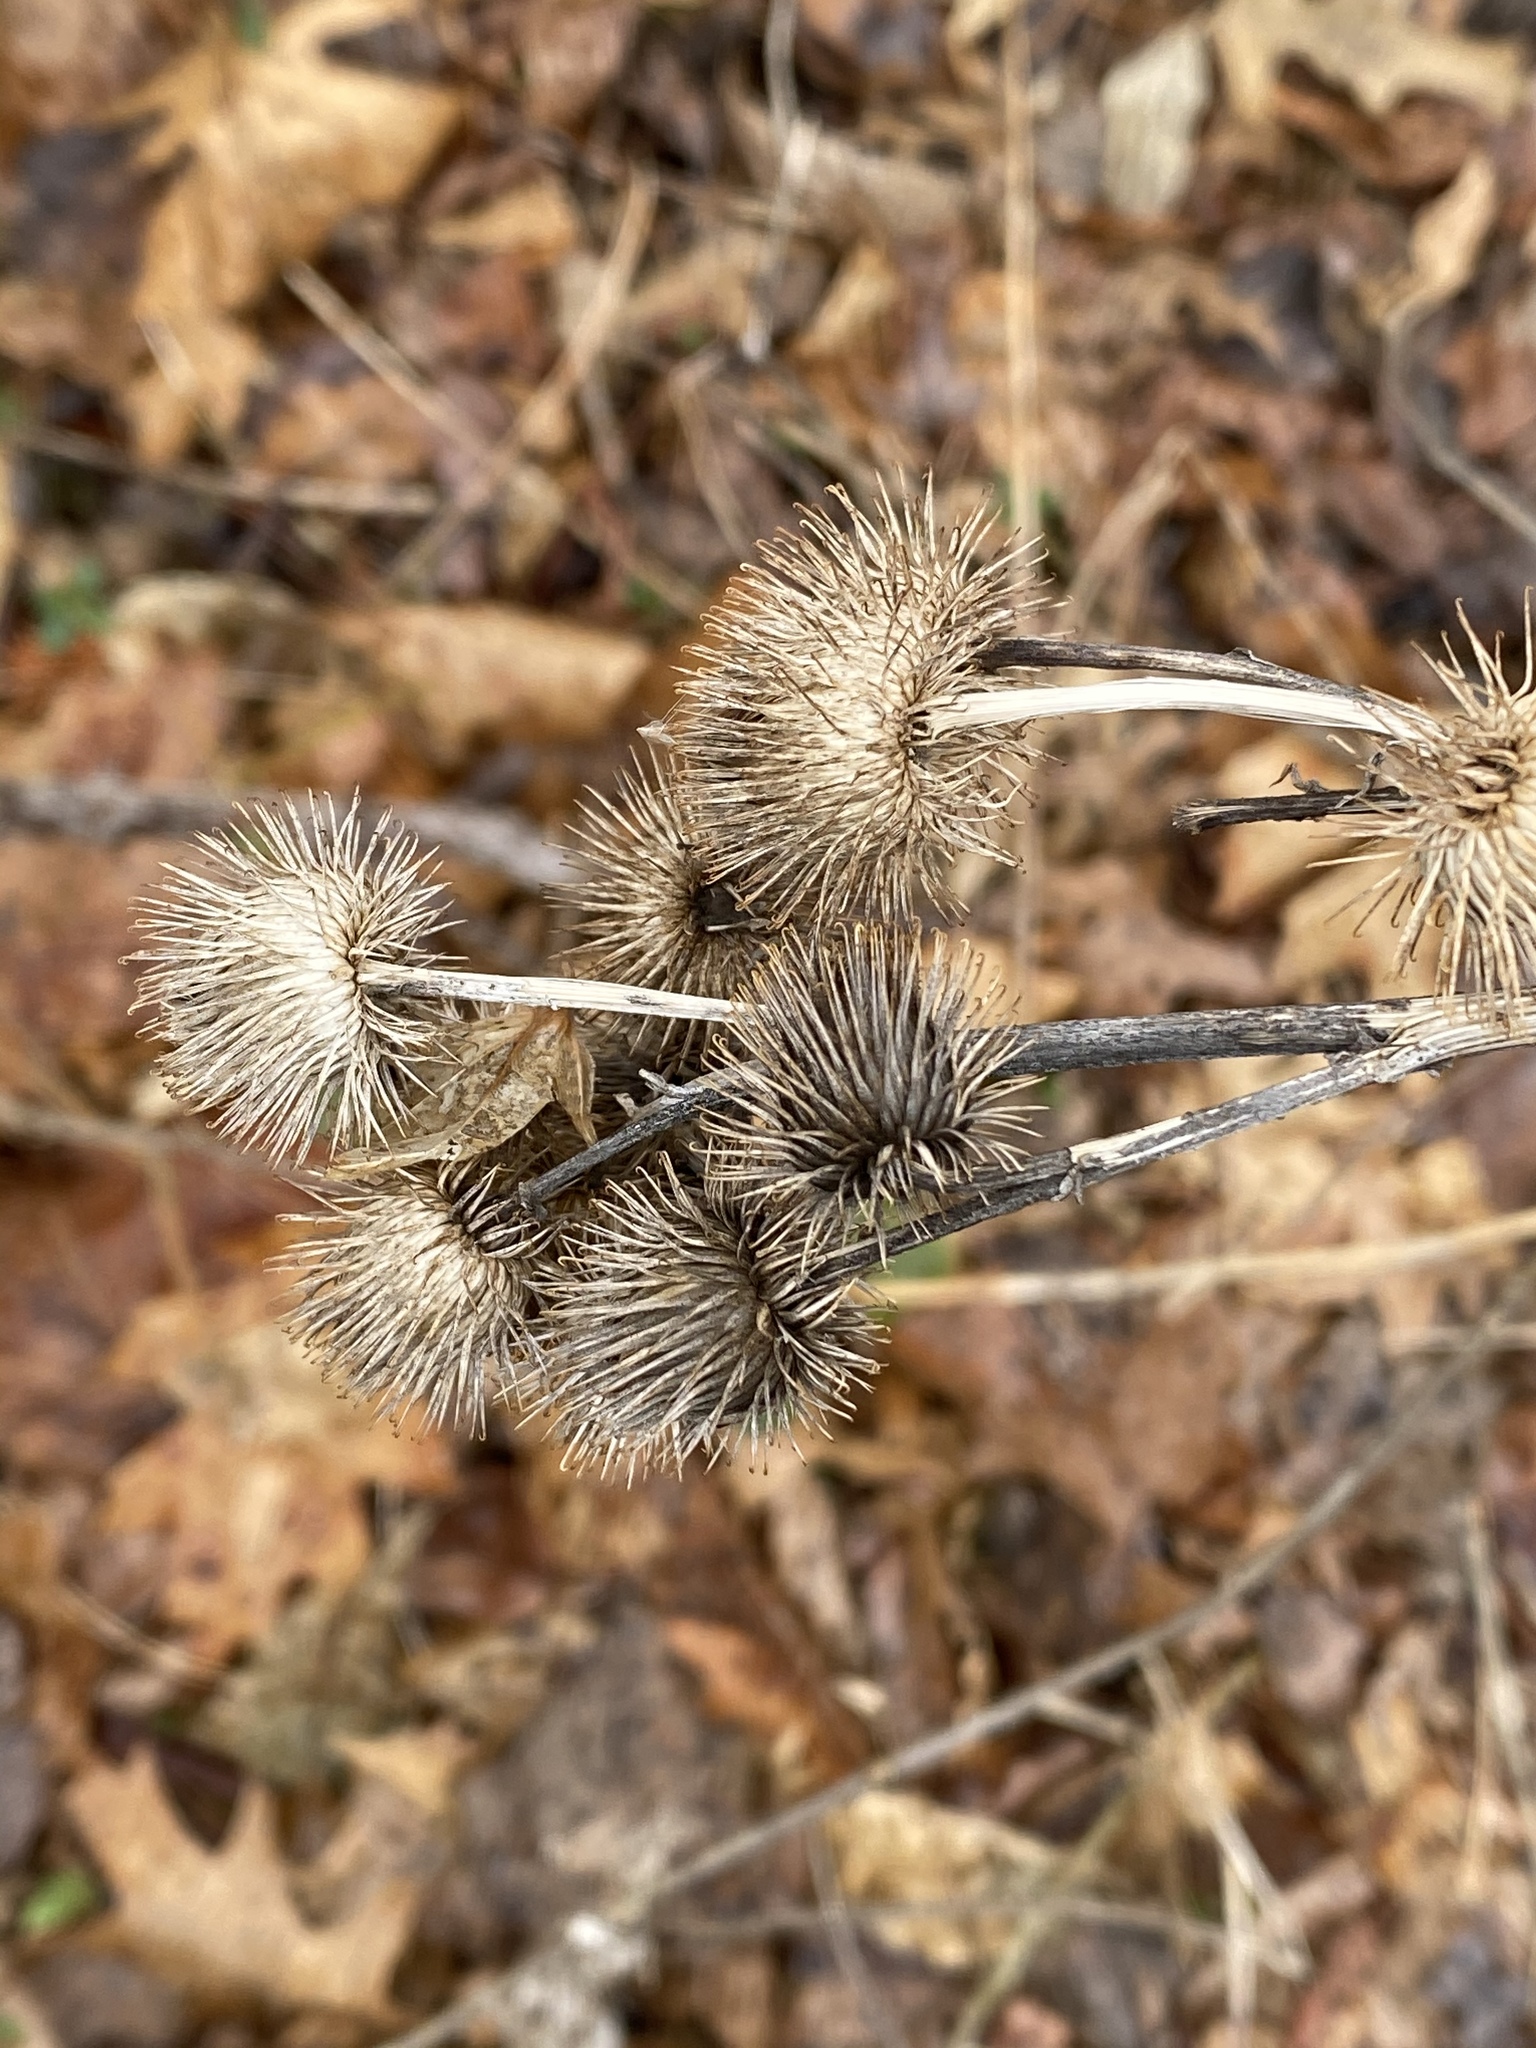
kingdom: Plantae
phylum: Tracheophyta
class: Magnoliopsida
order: Asterales
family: Asteraceae
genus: Arctium
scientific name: Arctium lappa
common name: Greater burdock
